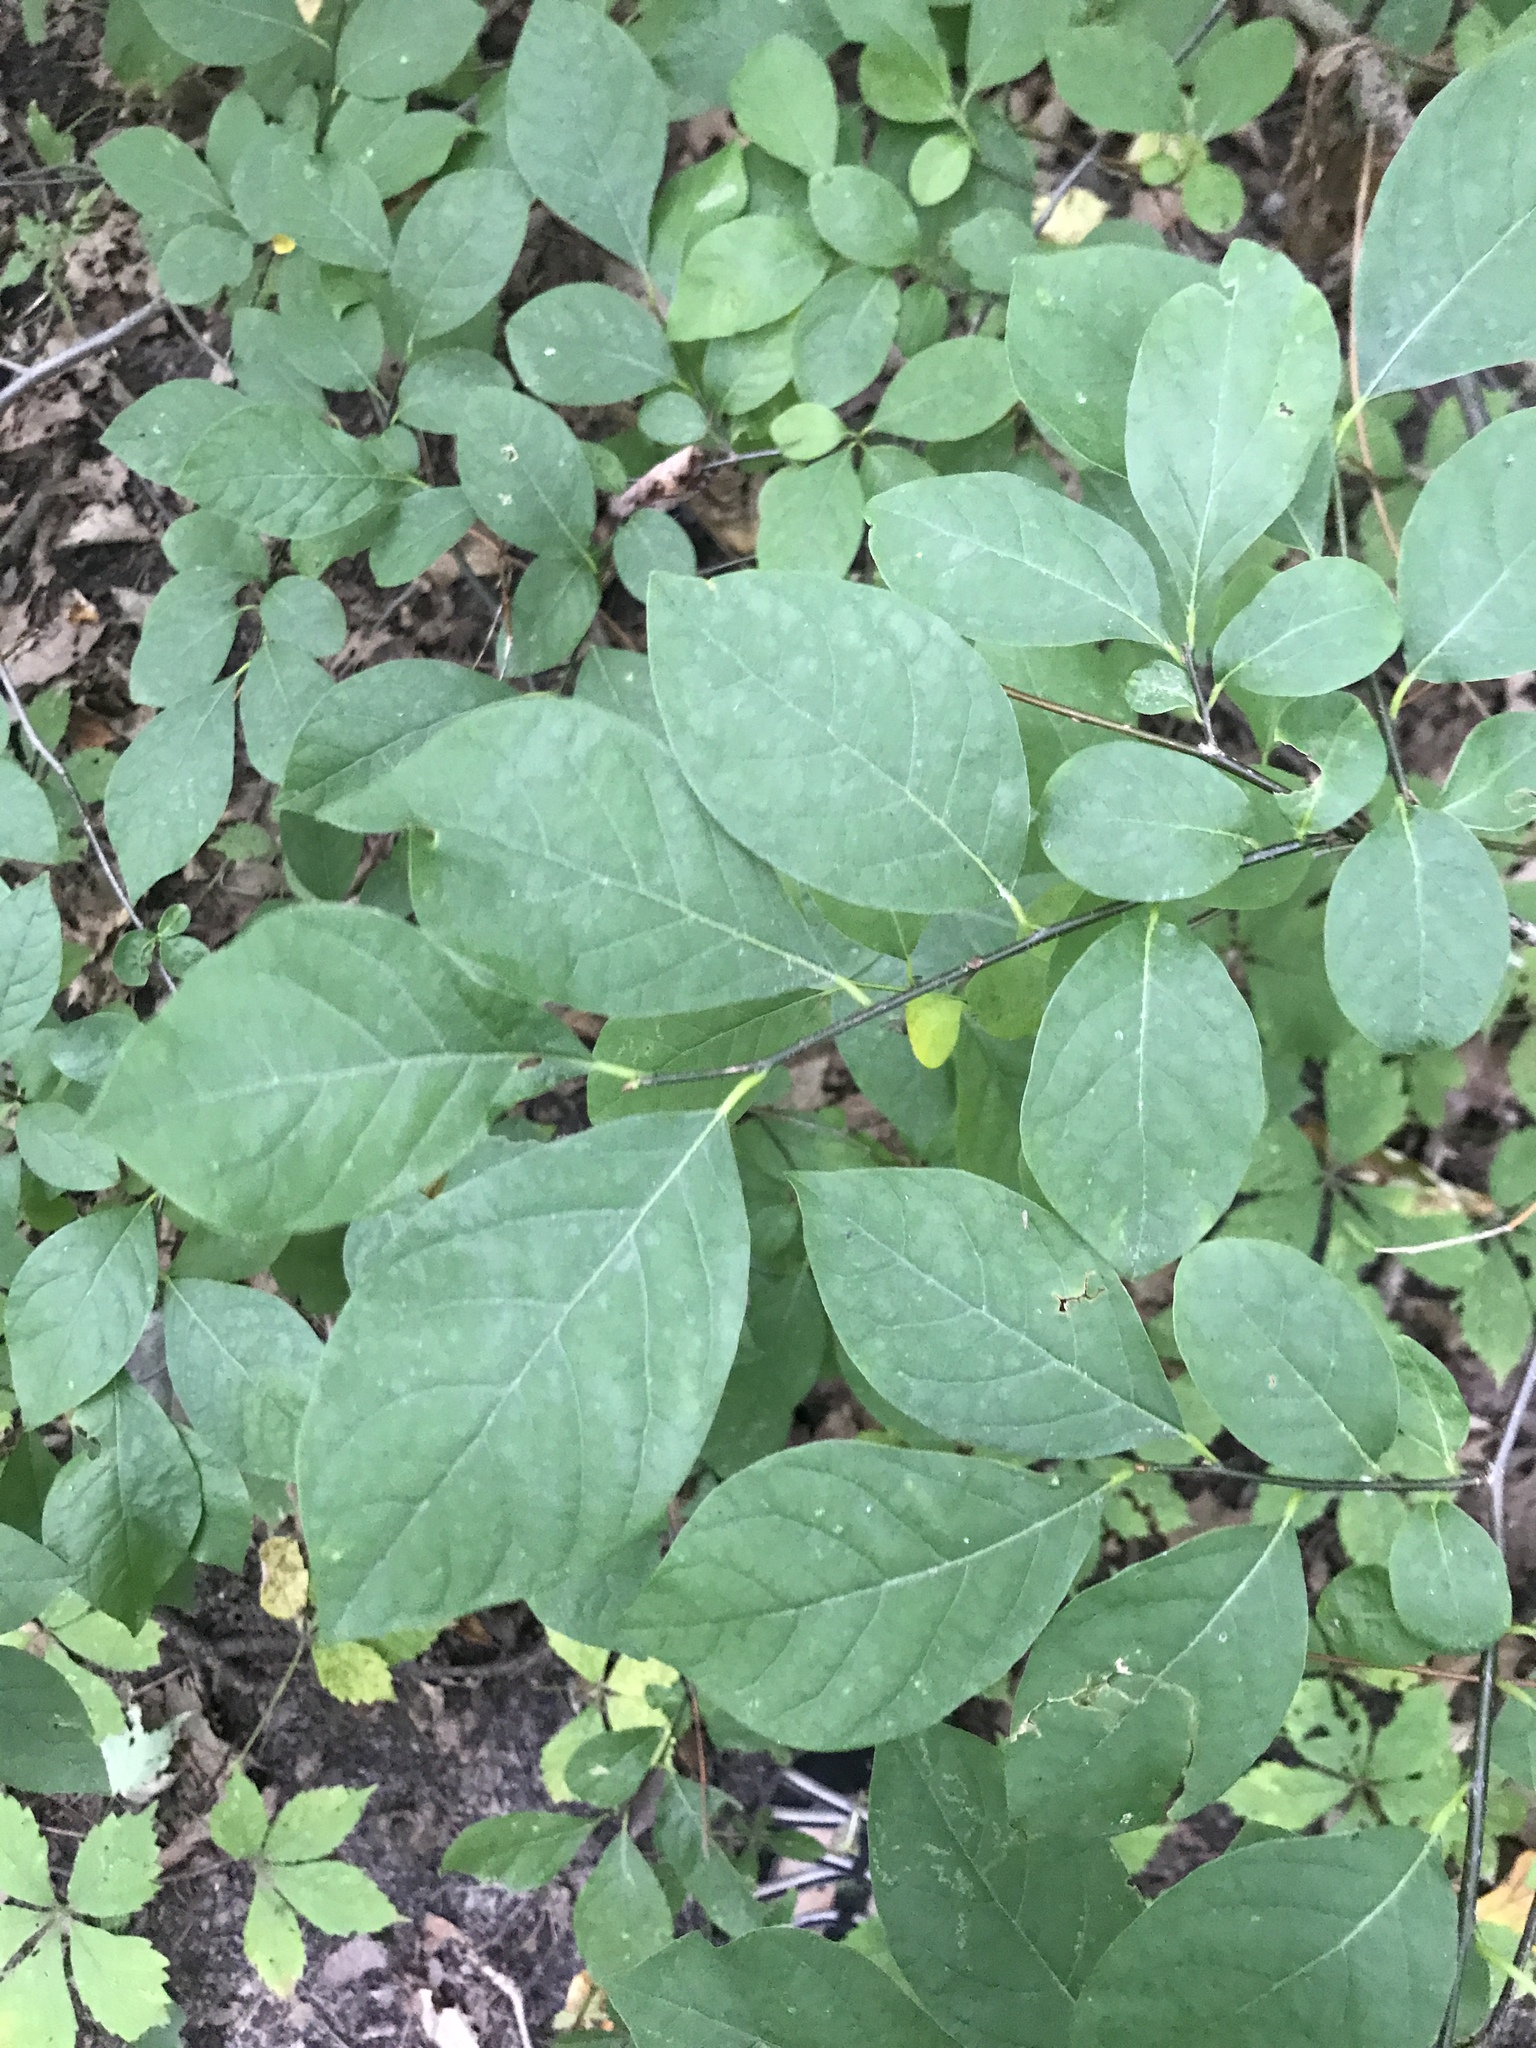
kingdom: Plantae
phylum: Tracheophyta
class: Magnoliopsida
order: Laurales
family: Lauraceae
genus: Lindera
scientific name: Lindera benzoin
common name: Spicebush
